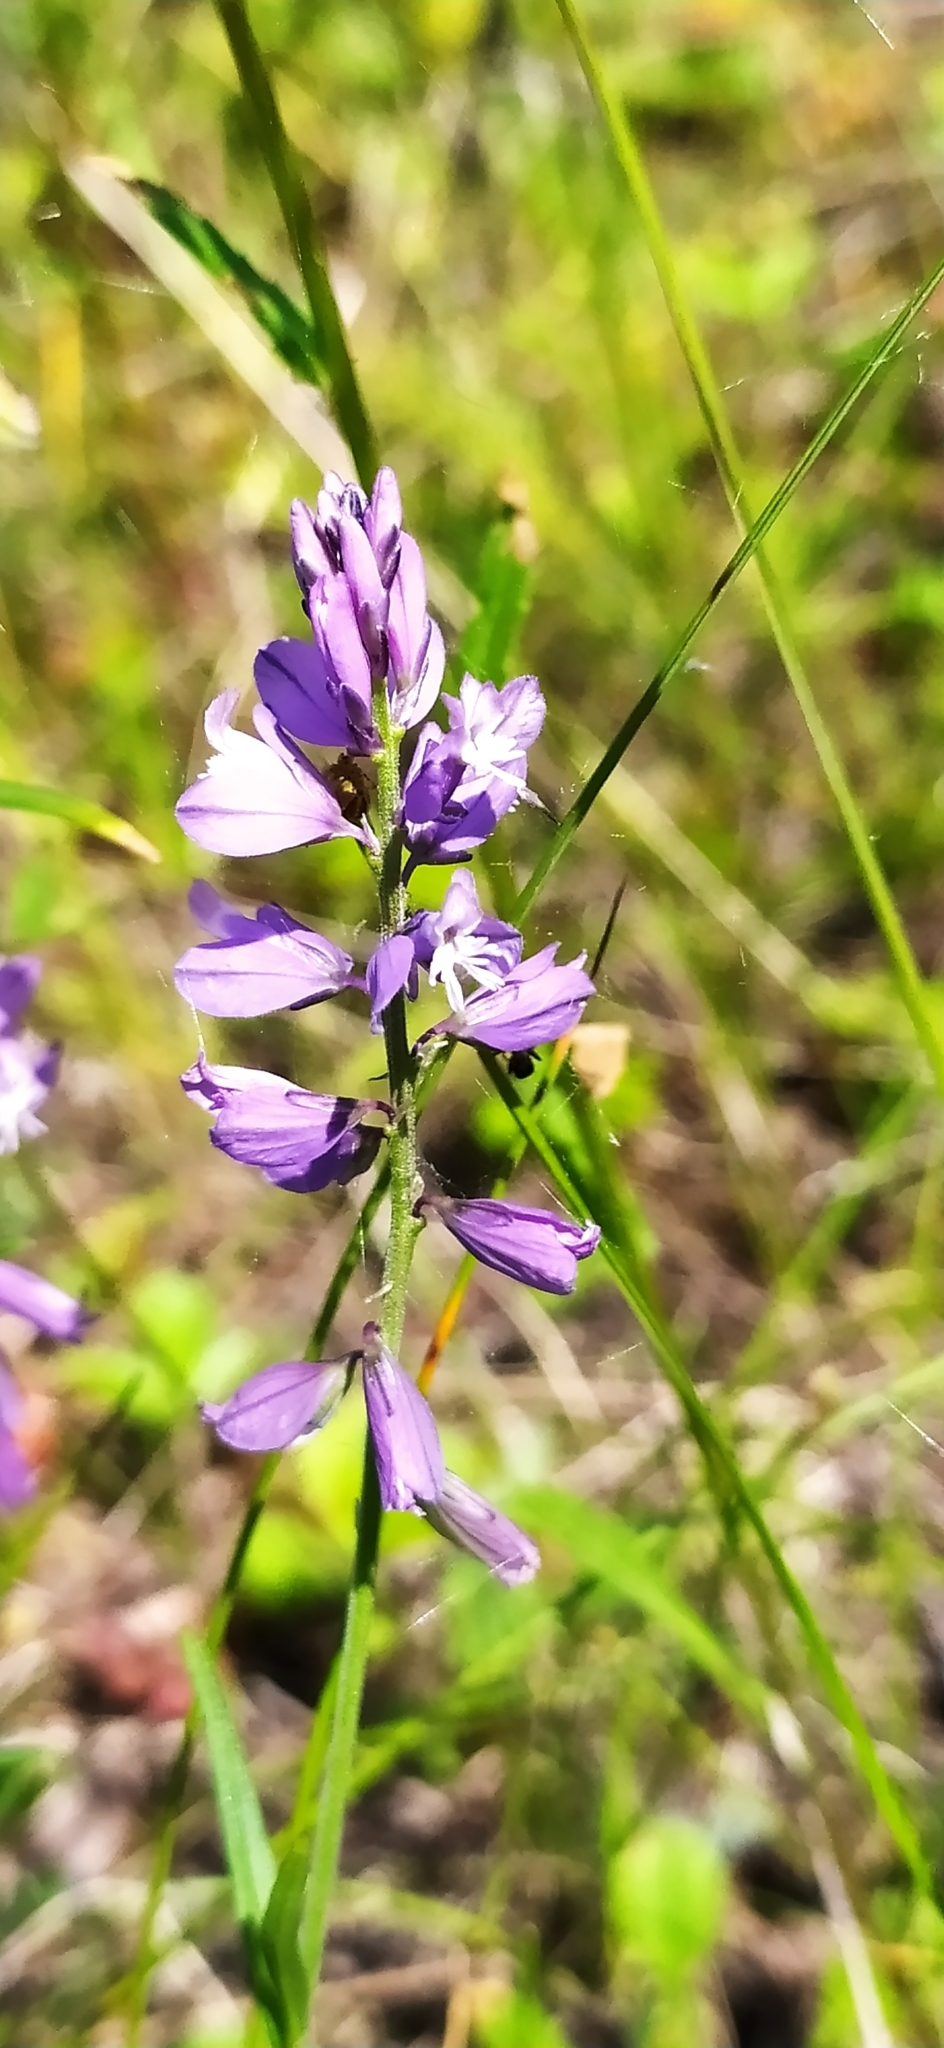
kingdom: Plantae
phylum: Tracheophyta
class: Magnoliopsida
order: Fabales
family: Polygalaceae
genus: Polygala
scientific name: Polygala comosa
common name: Tufted milkwort
